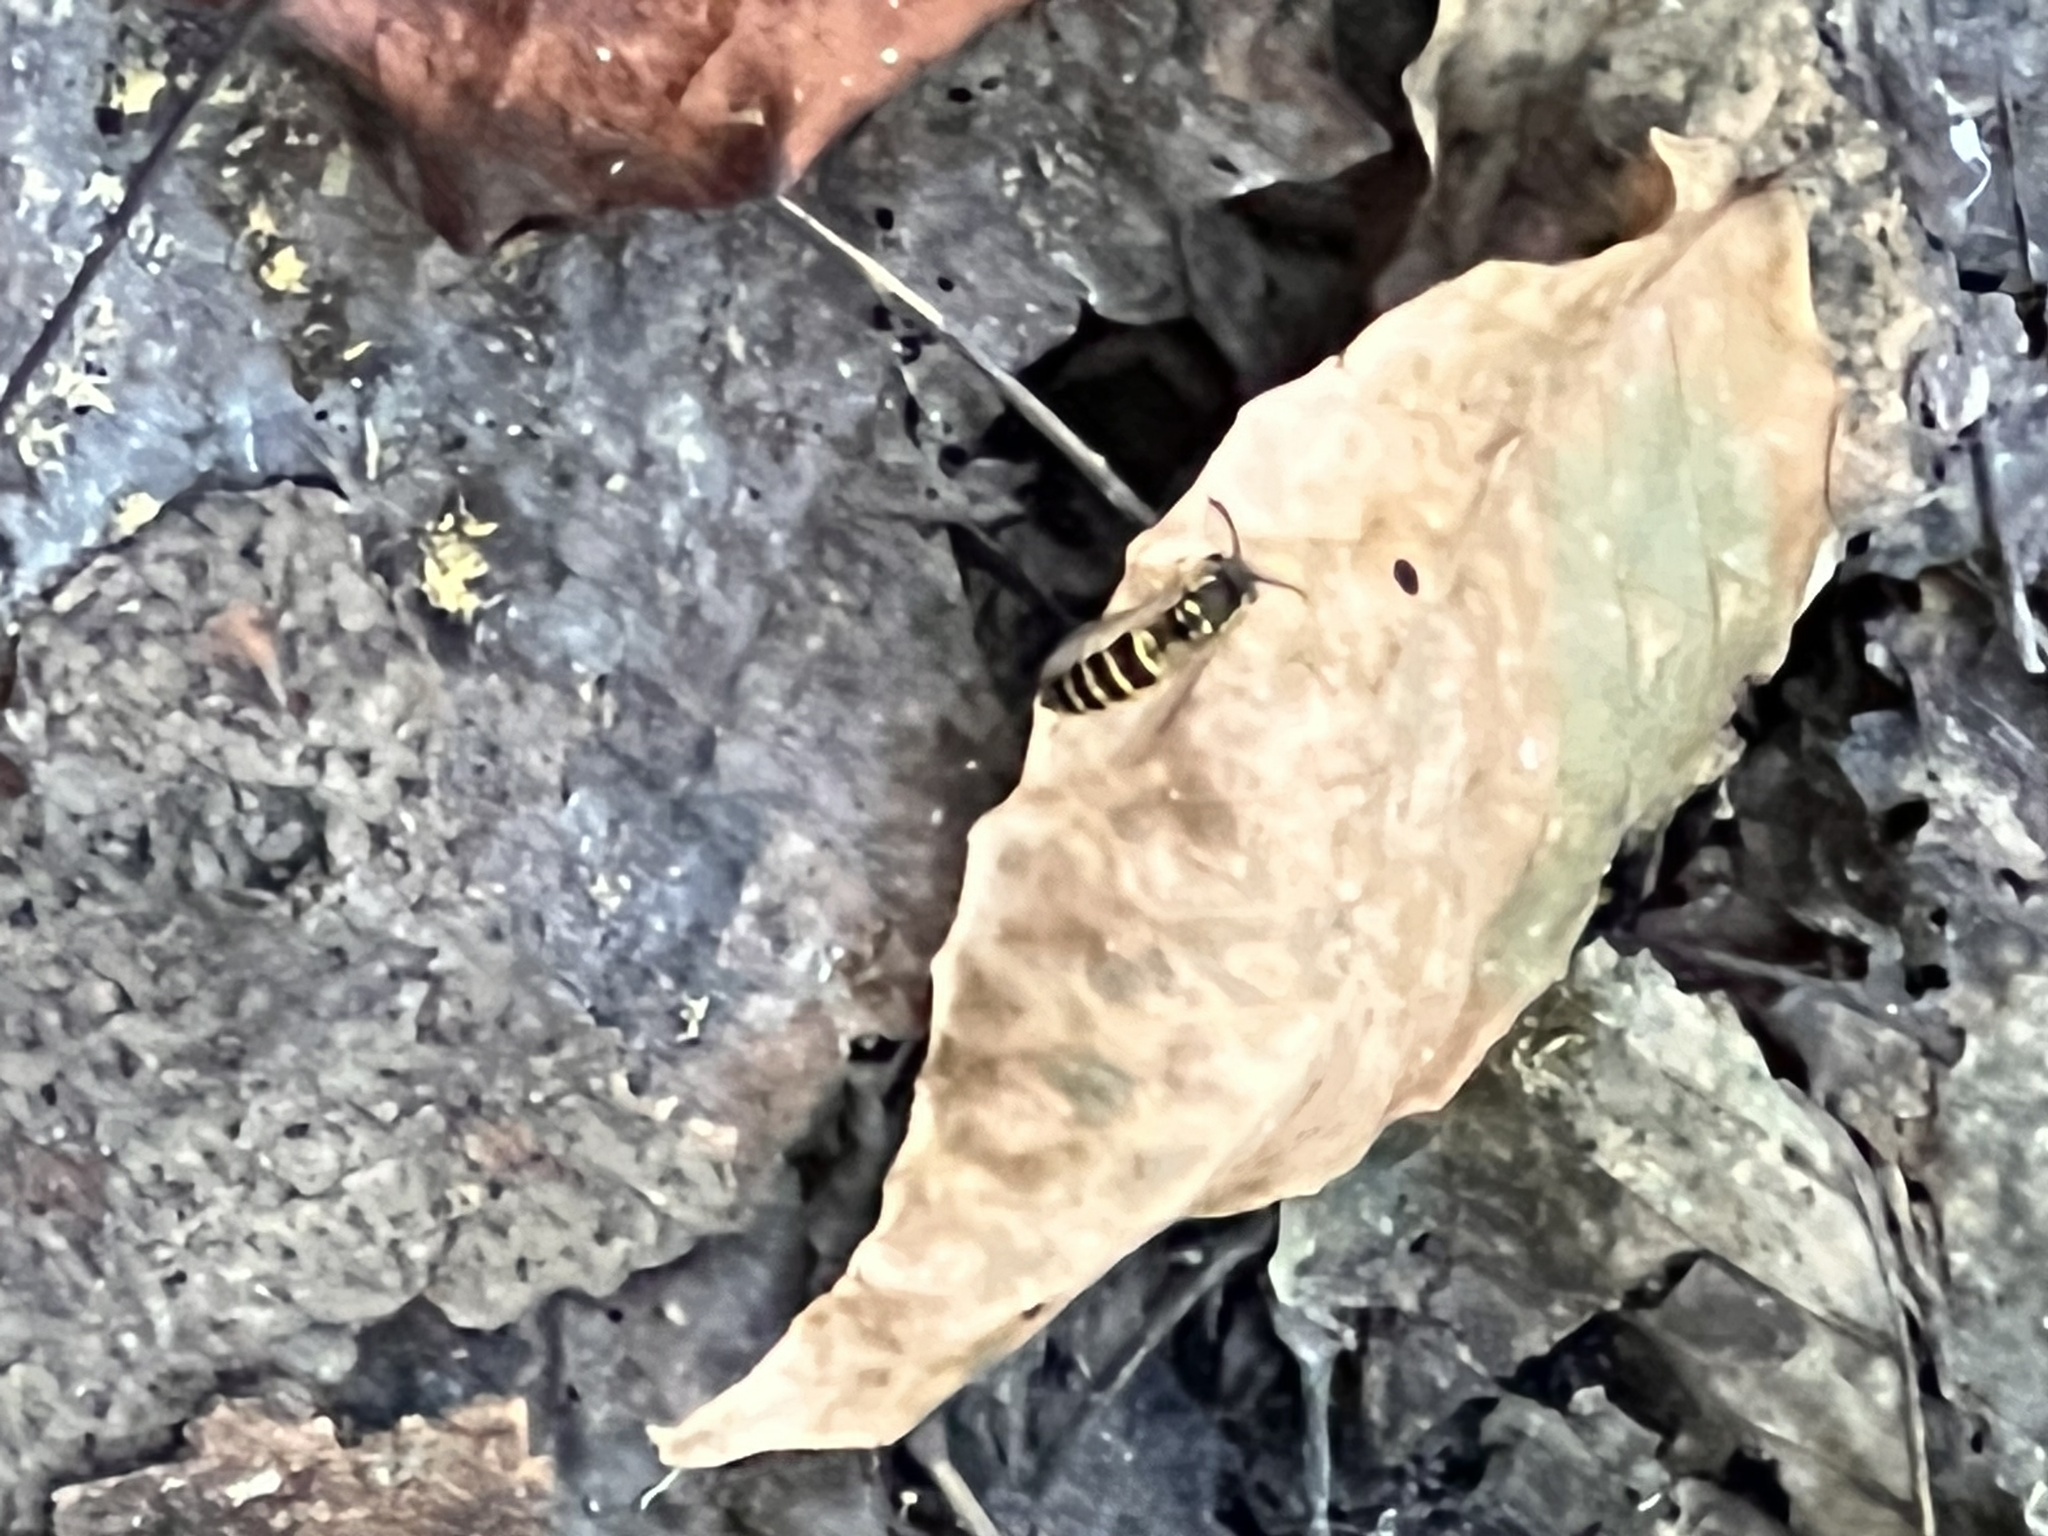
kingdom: Animalia
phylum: Arthropoda
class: Insecta
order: Hymenoptera
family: Vespidae
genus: Vespula
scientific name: Vespula maculifrons
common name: Eastern yellowjacket
